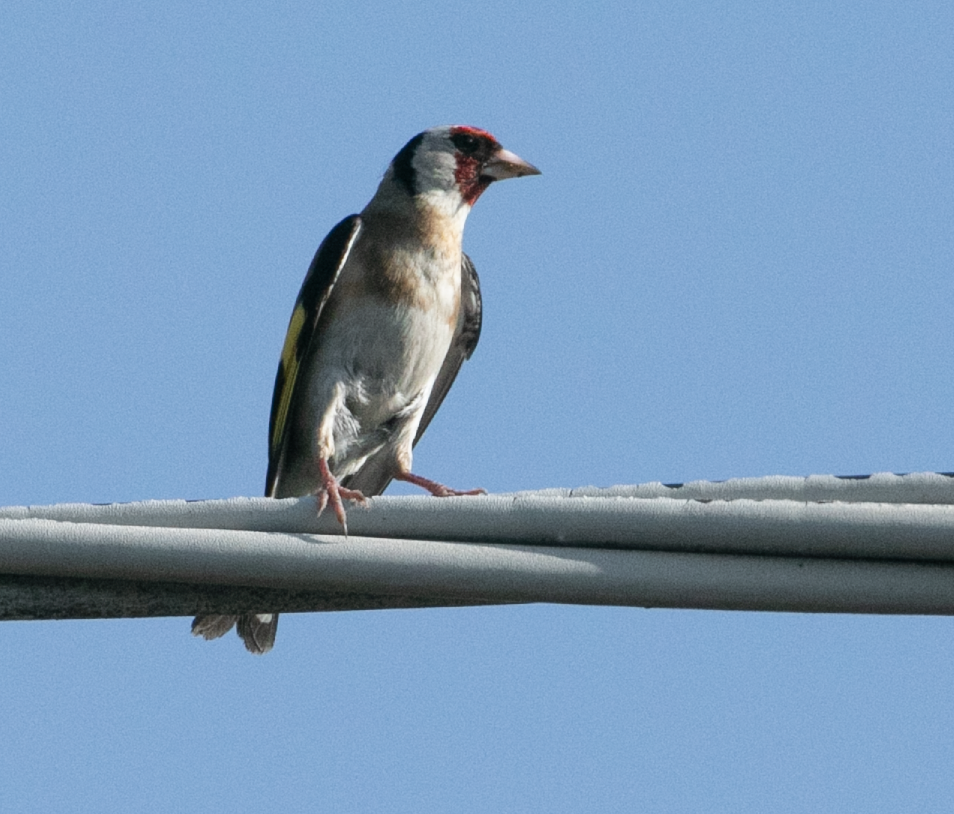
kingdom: Animalia
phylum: Chordata
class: Aves
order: Passeriformes
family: Fringillidae
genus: Carduelis
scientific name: Carduelis carduelis
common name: European goldfinch
